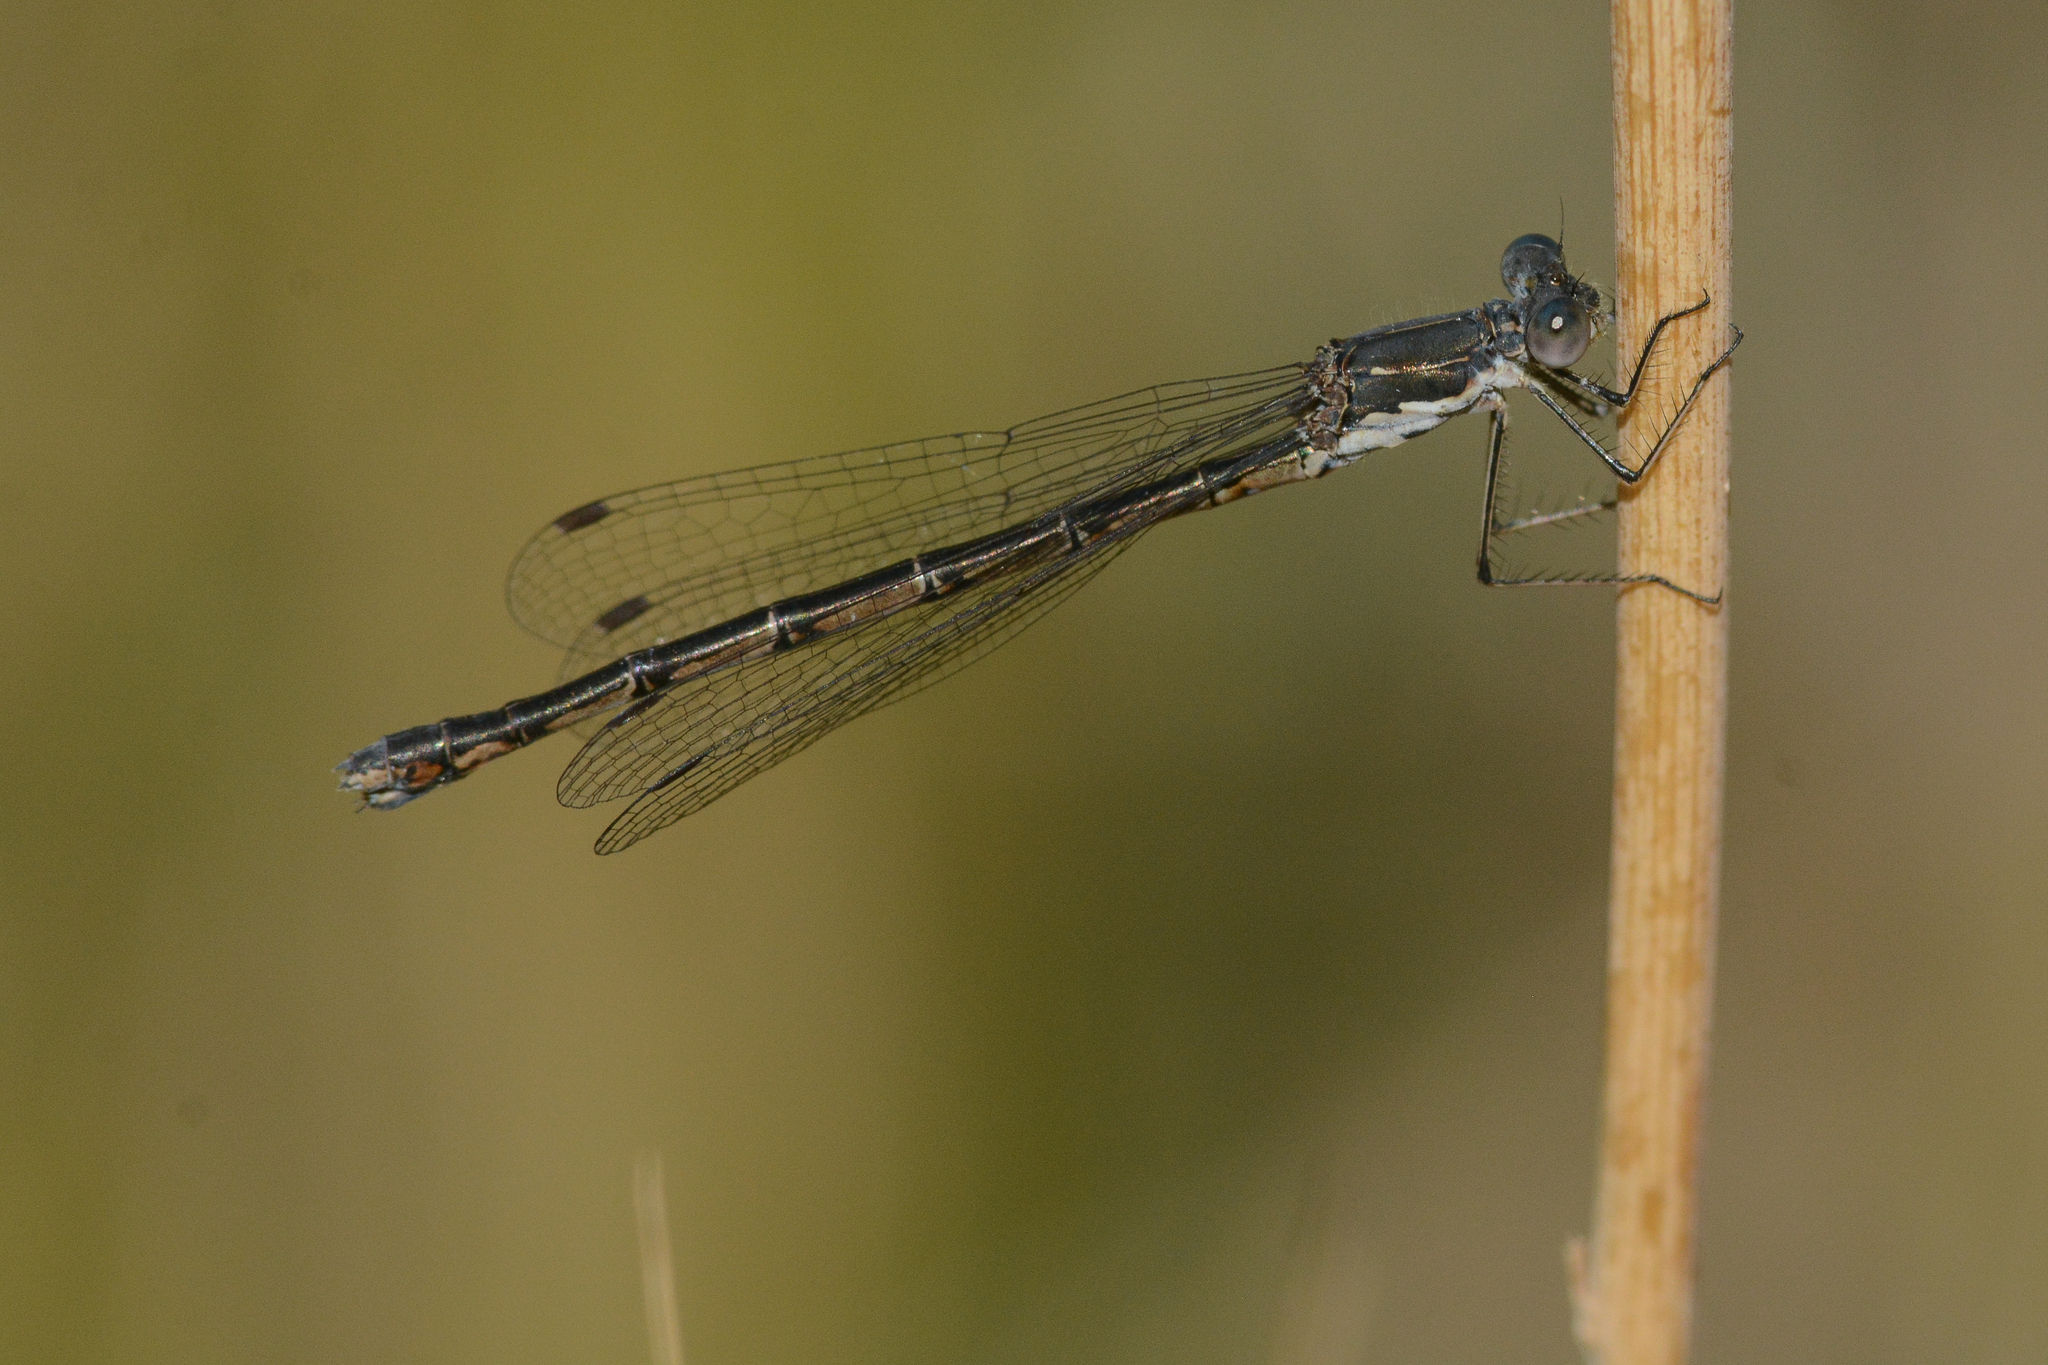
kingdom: Animalia
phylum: Arthropoda
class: Insecta
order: Odonata
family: Lestidae
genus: Lestes
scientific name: Lestes congener
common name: Spotted spreadwing
